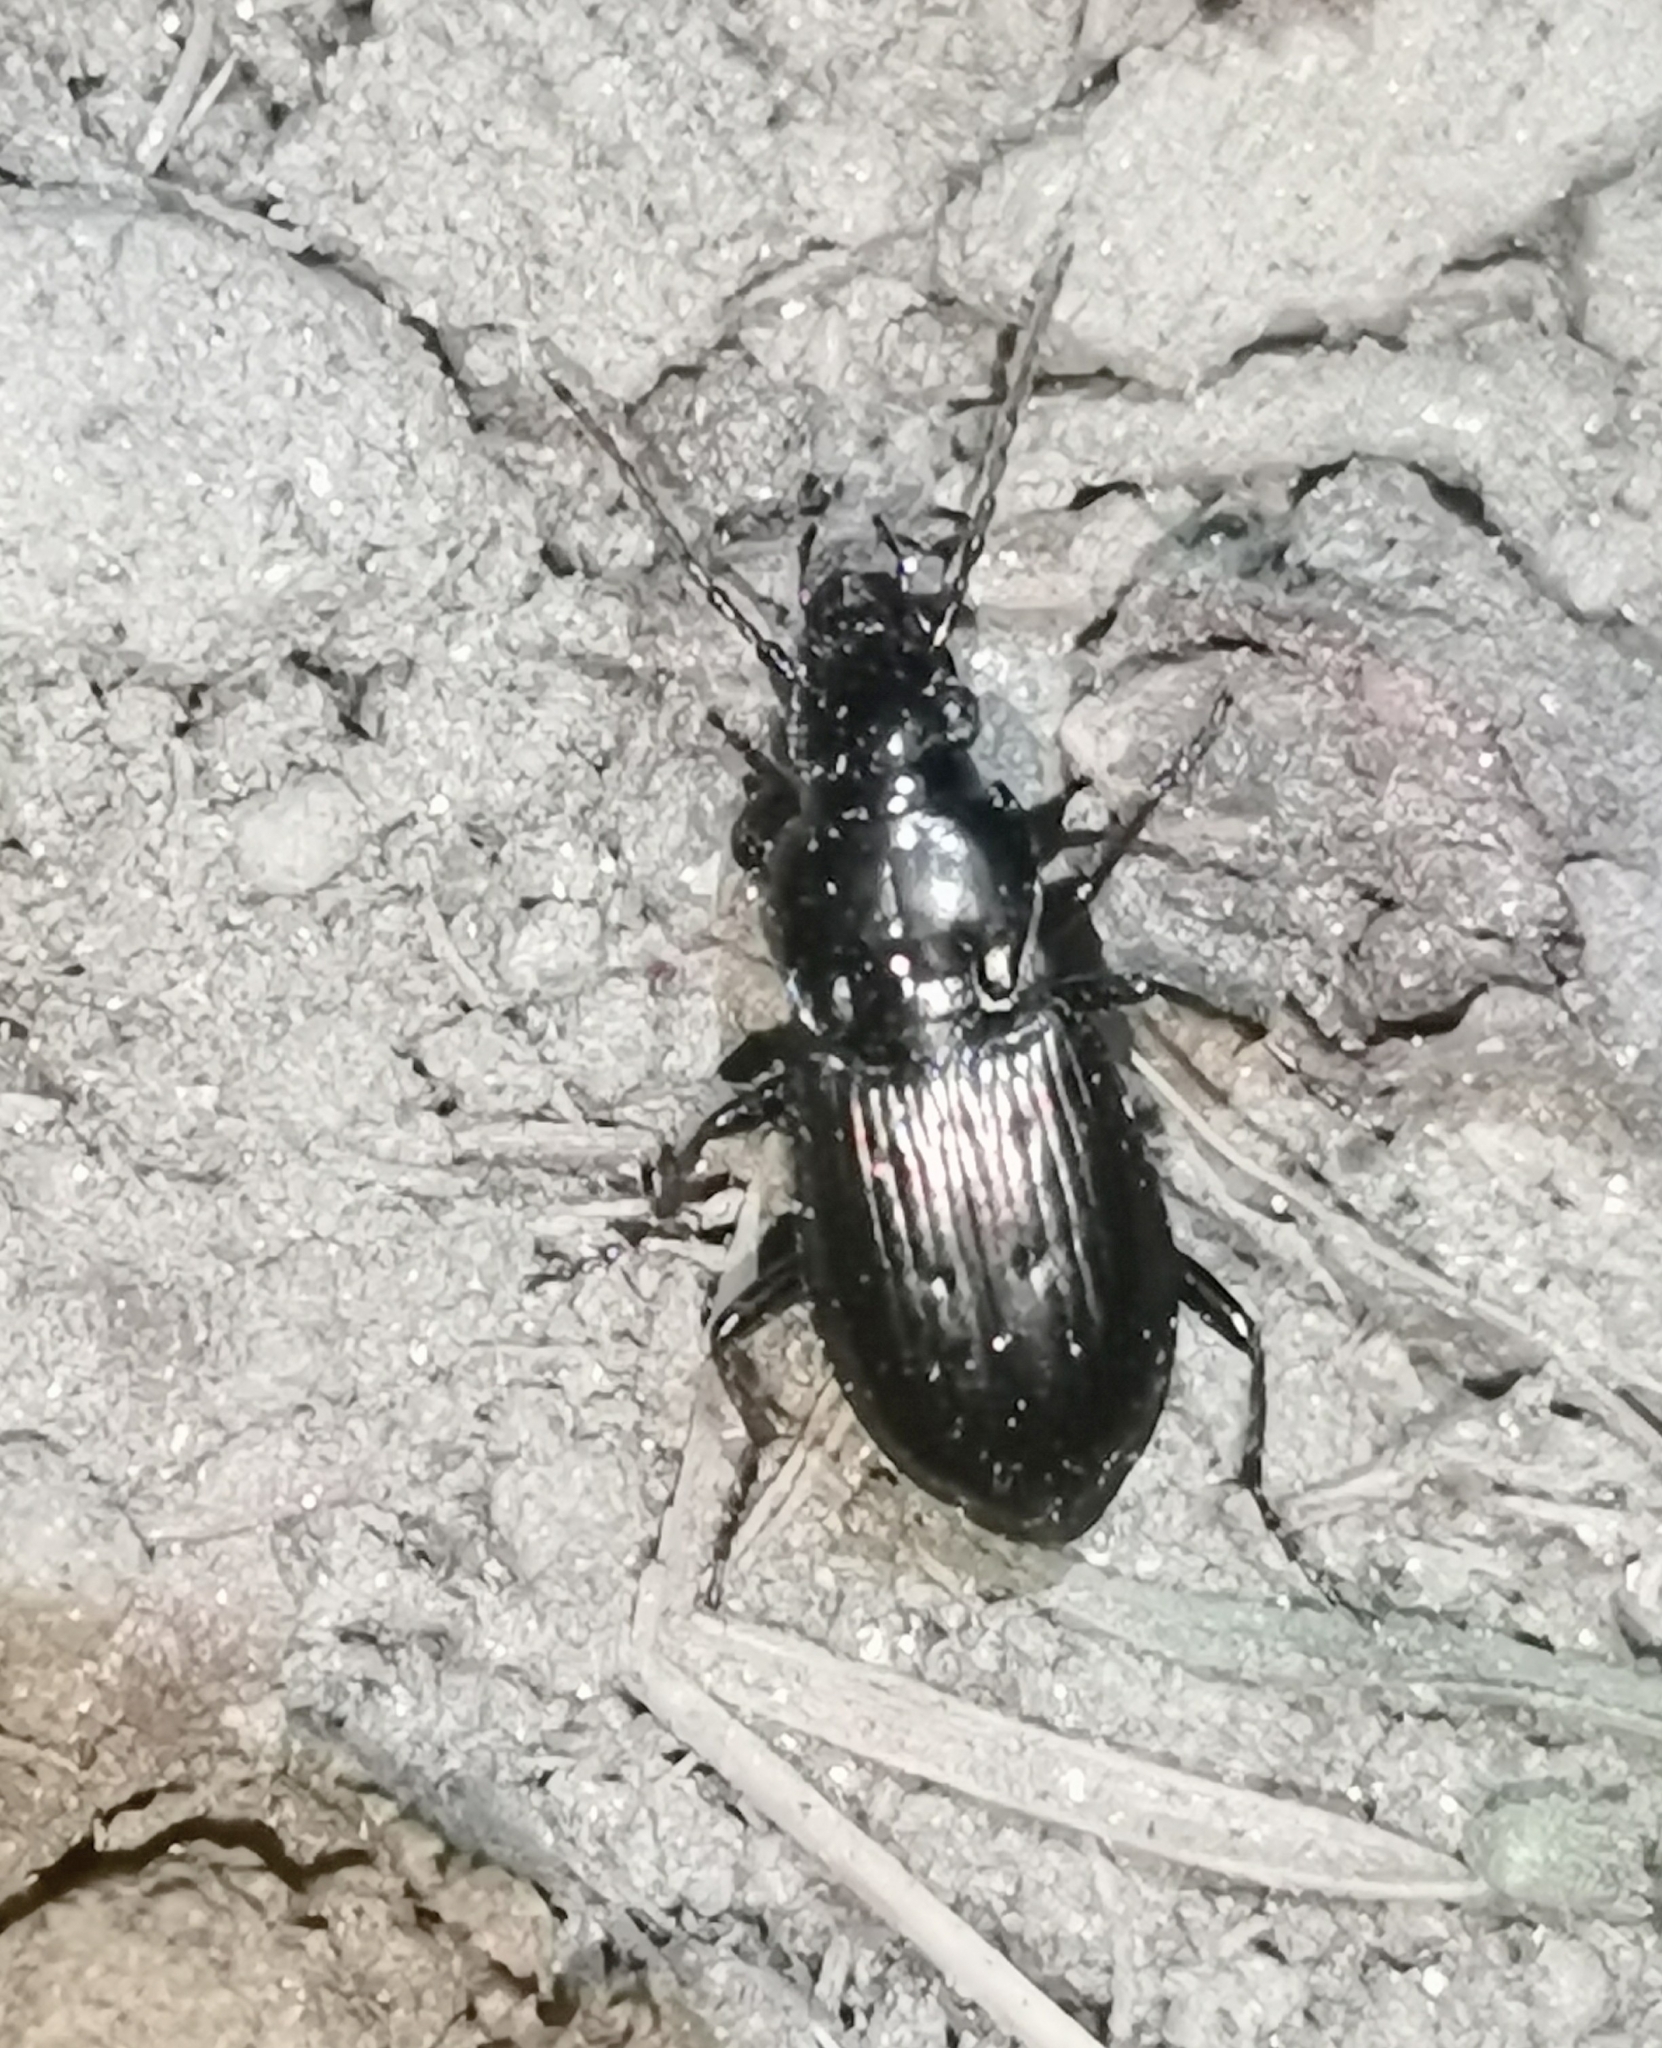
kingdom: Animalia
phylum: Arthropoda
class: Insecta
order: Coleoptera
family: Carabidae
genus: Pterostichus
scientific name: Pterostichus oblongopunctatus
